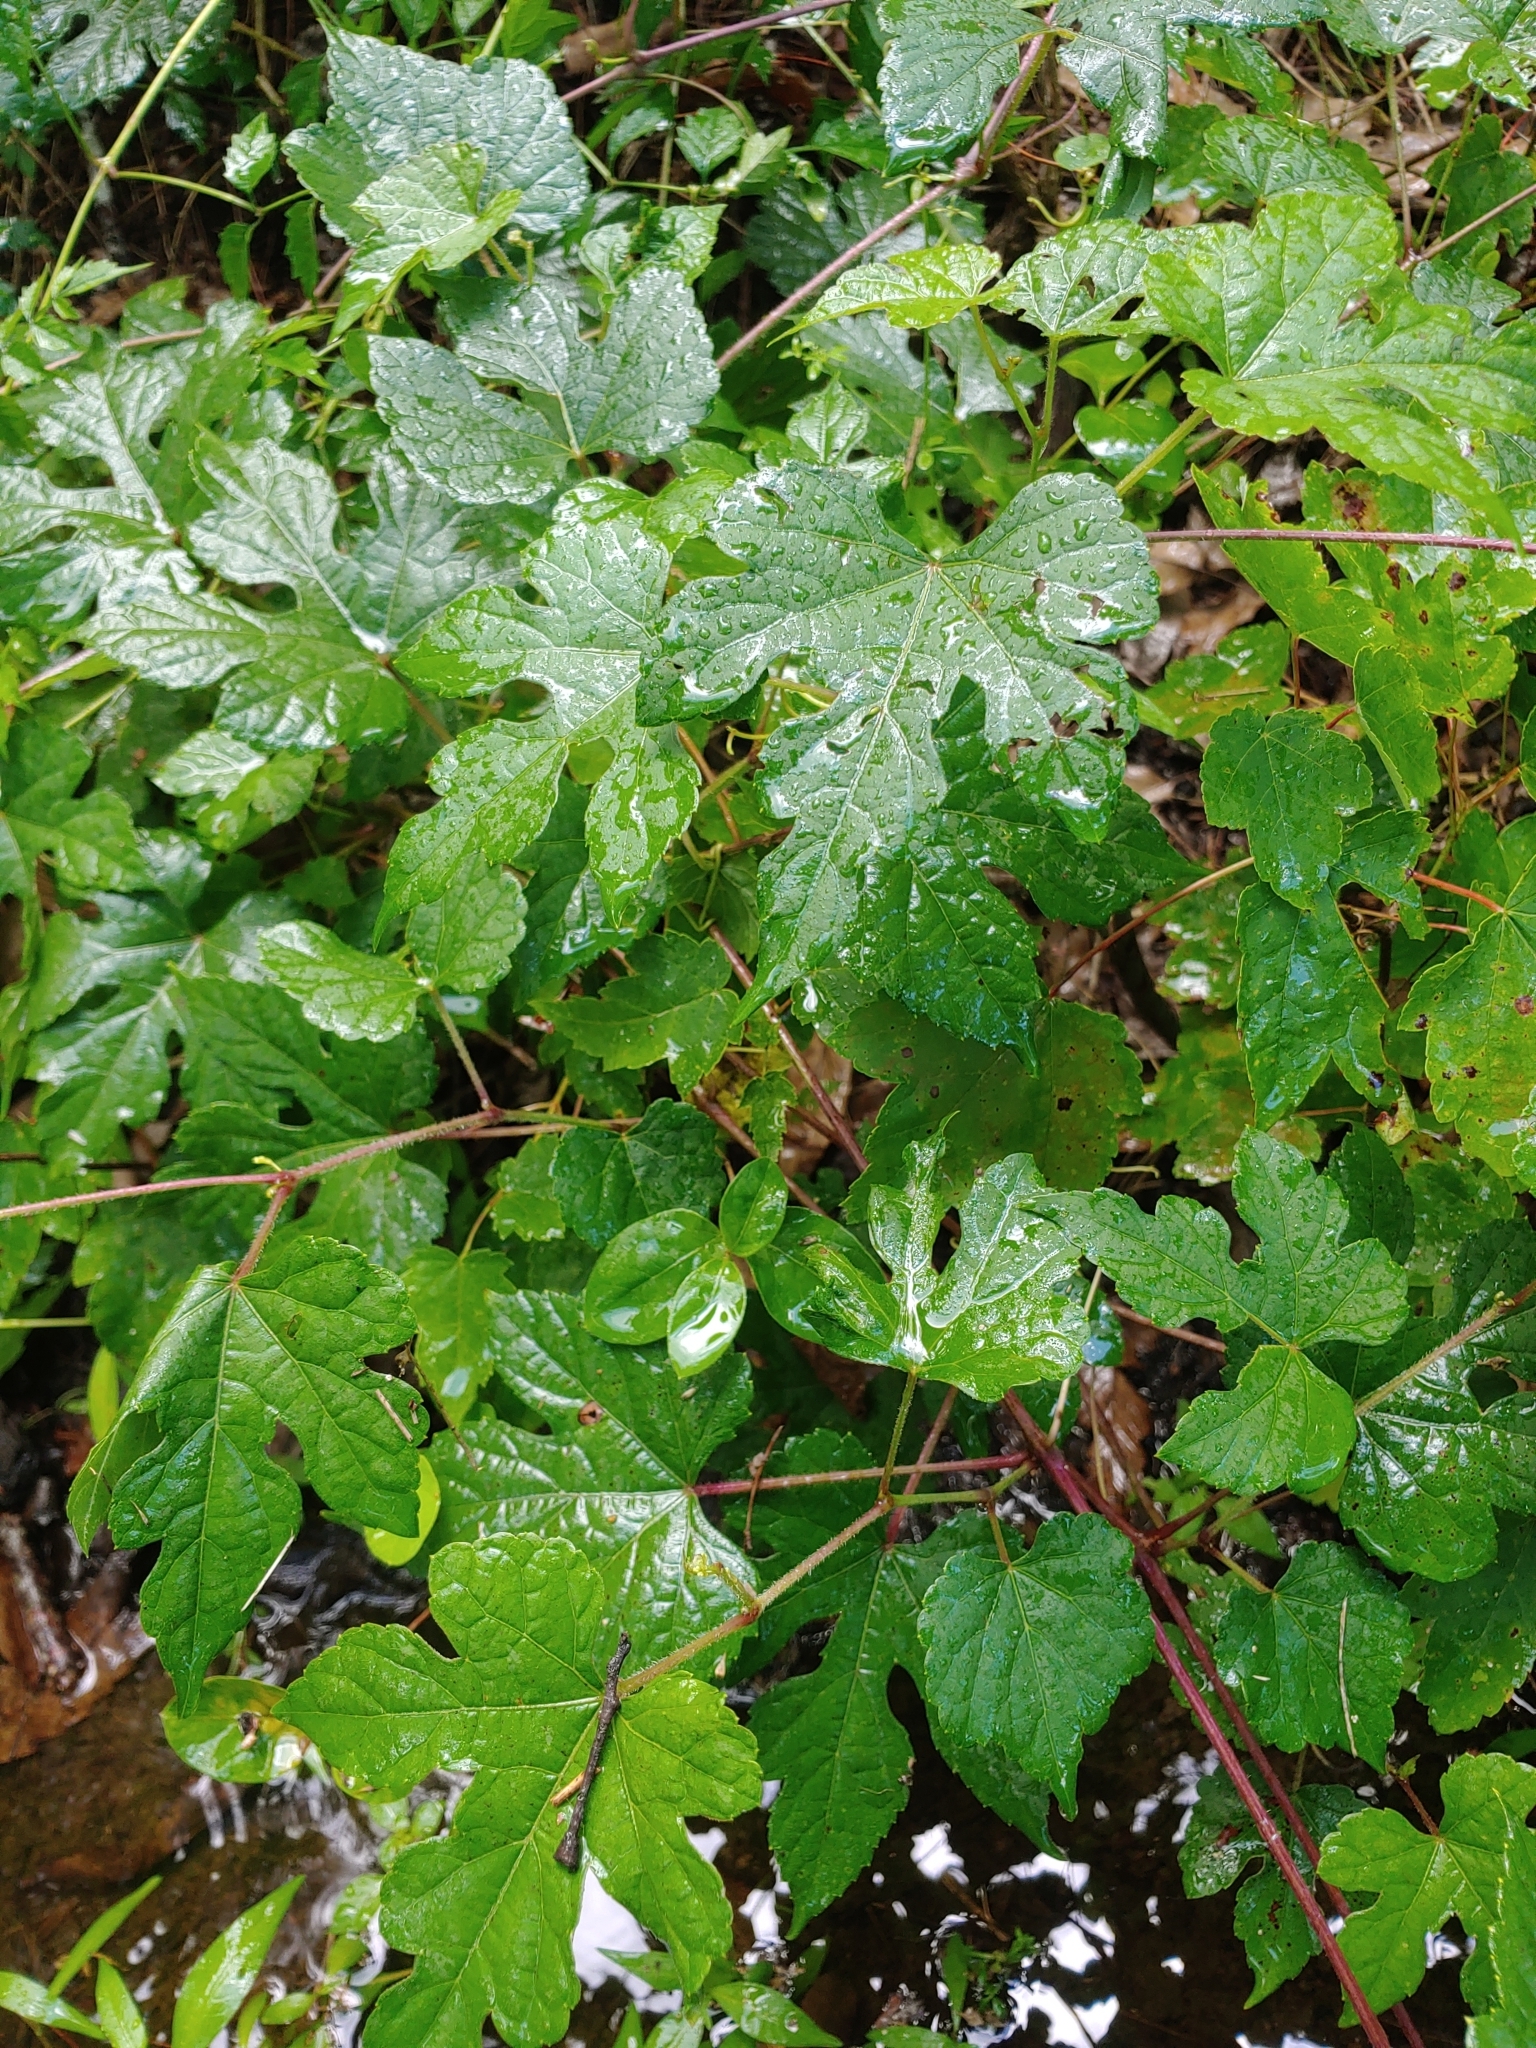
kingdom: Plantae
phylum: Tracheophyta
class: Magnoliopsida
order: Vitales
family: Vitaceae
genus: Ampelopsis
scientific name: Ampelopsis glandulosa
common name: Amur peppervine
